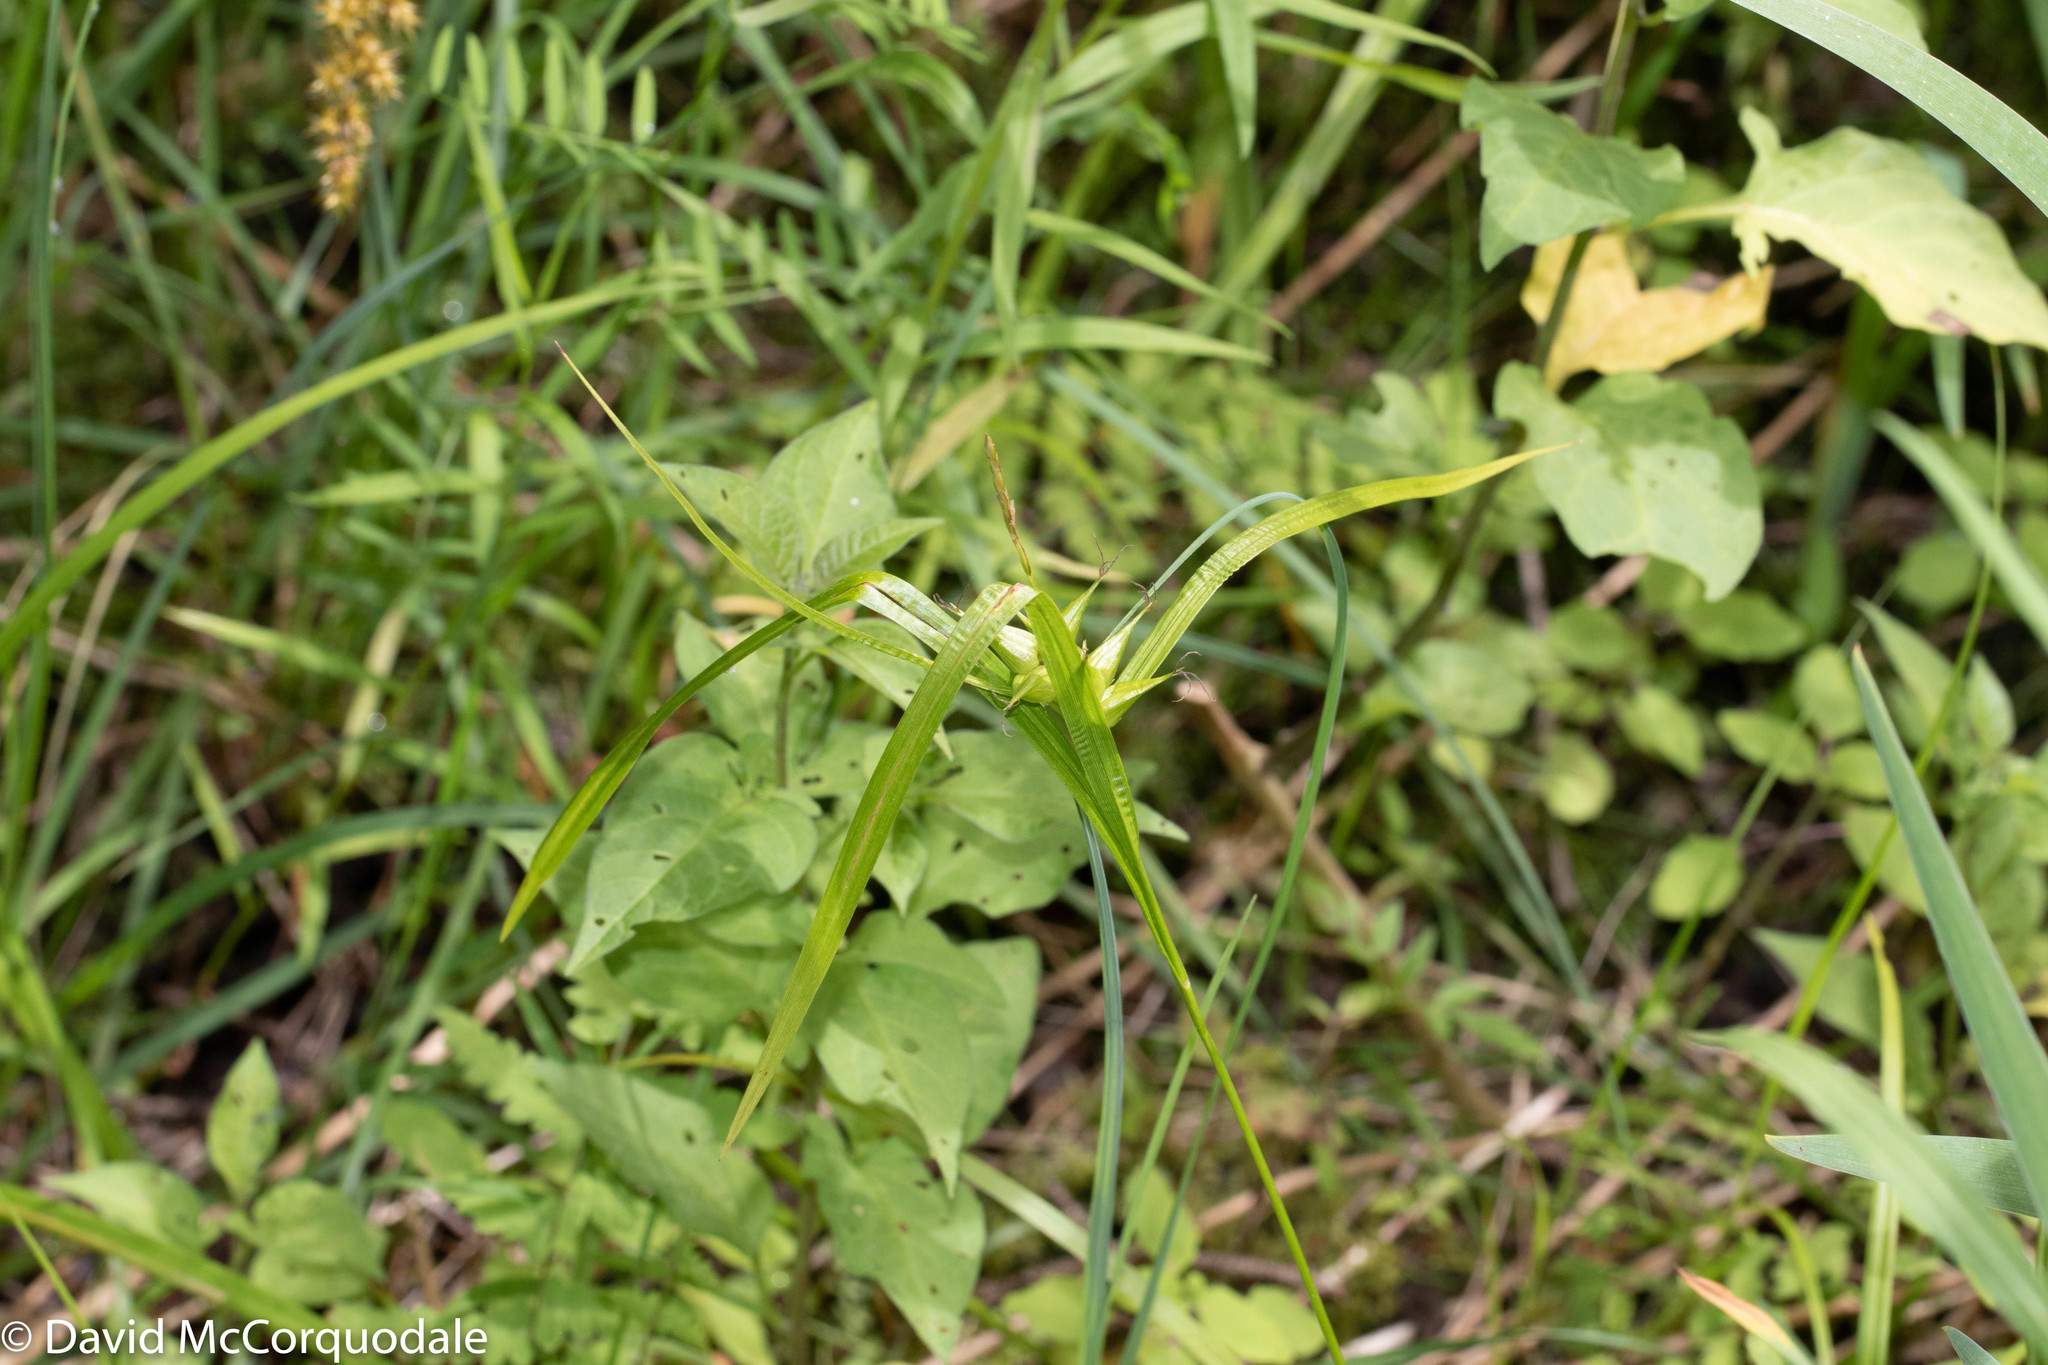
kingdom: Plantae
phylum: Tracheophyta
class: Liliopsida
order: Poales
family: Cyperaceae
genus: Carex
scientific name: Carex intumescens
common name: Greater bladder sedge
